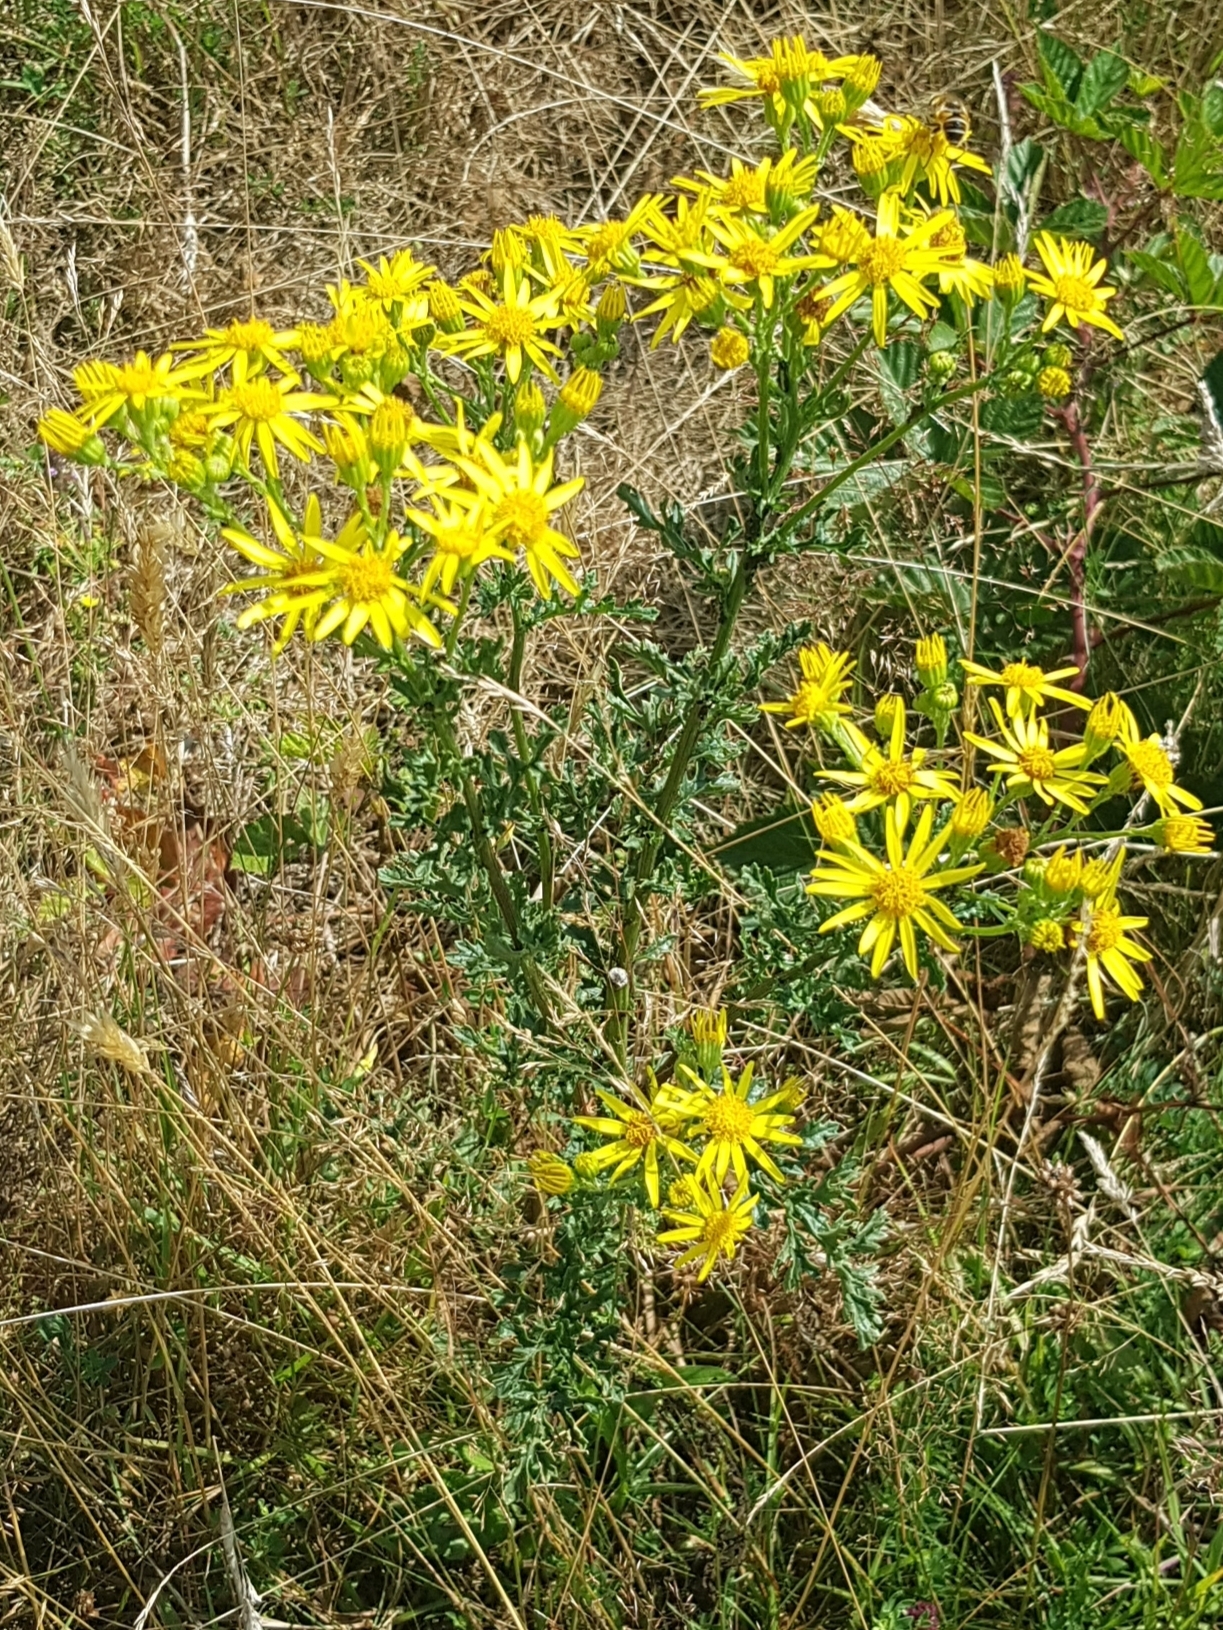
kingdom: Plantae
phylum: Tracheophyta
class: Magnoliopsida
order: Asterales
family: Asteraceae
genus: Jacobaea
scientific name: Jacobaea vulgaris
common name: Stinking willie
